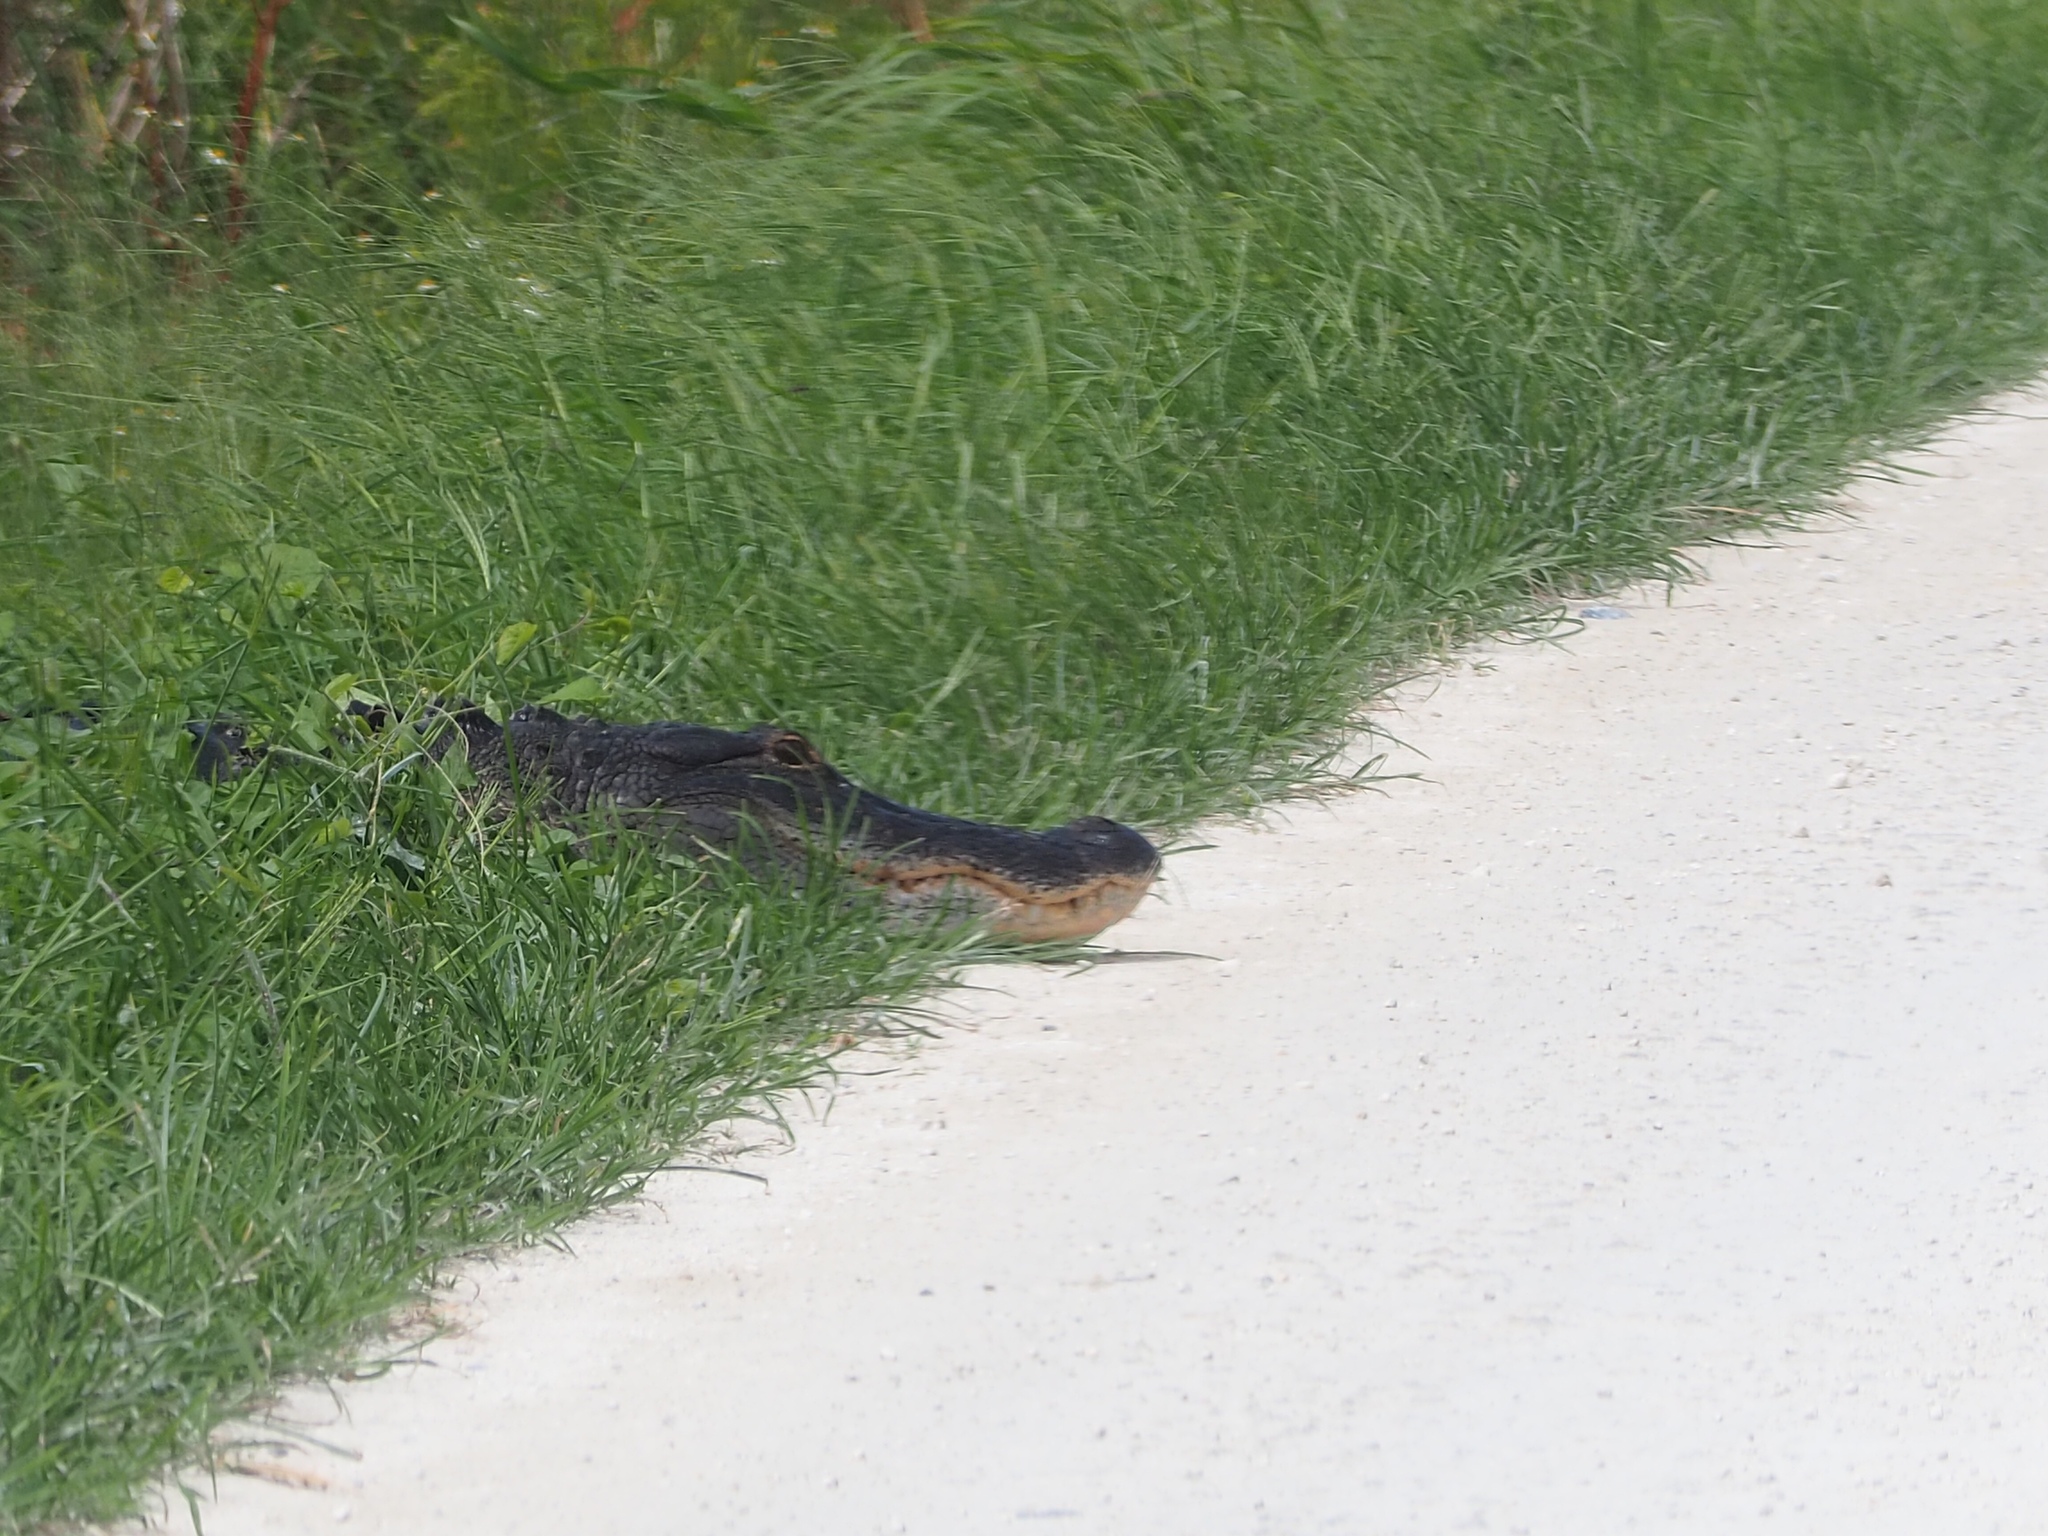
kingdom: Animalia
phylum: Chordata
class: Crocodylia
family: Alligatoridae
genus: Alligator
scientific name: Alligator mississippiensis
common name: American alligator
